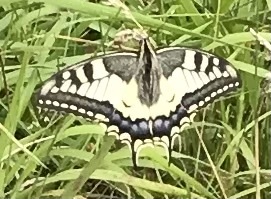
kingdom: Animalia
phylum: Arthropoda
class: Insecta
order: Lepidoptera
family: Papilionidae
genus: Papilio
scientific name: Papilio machaon
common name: Swallowtail
